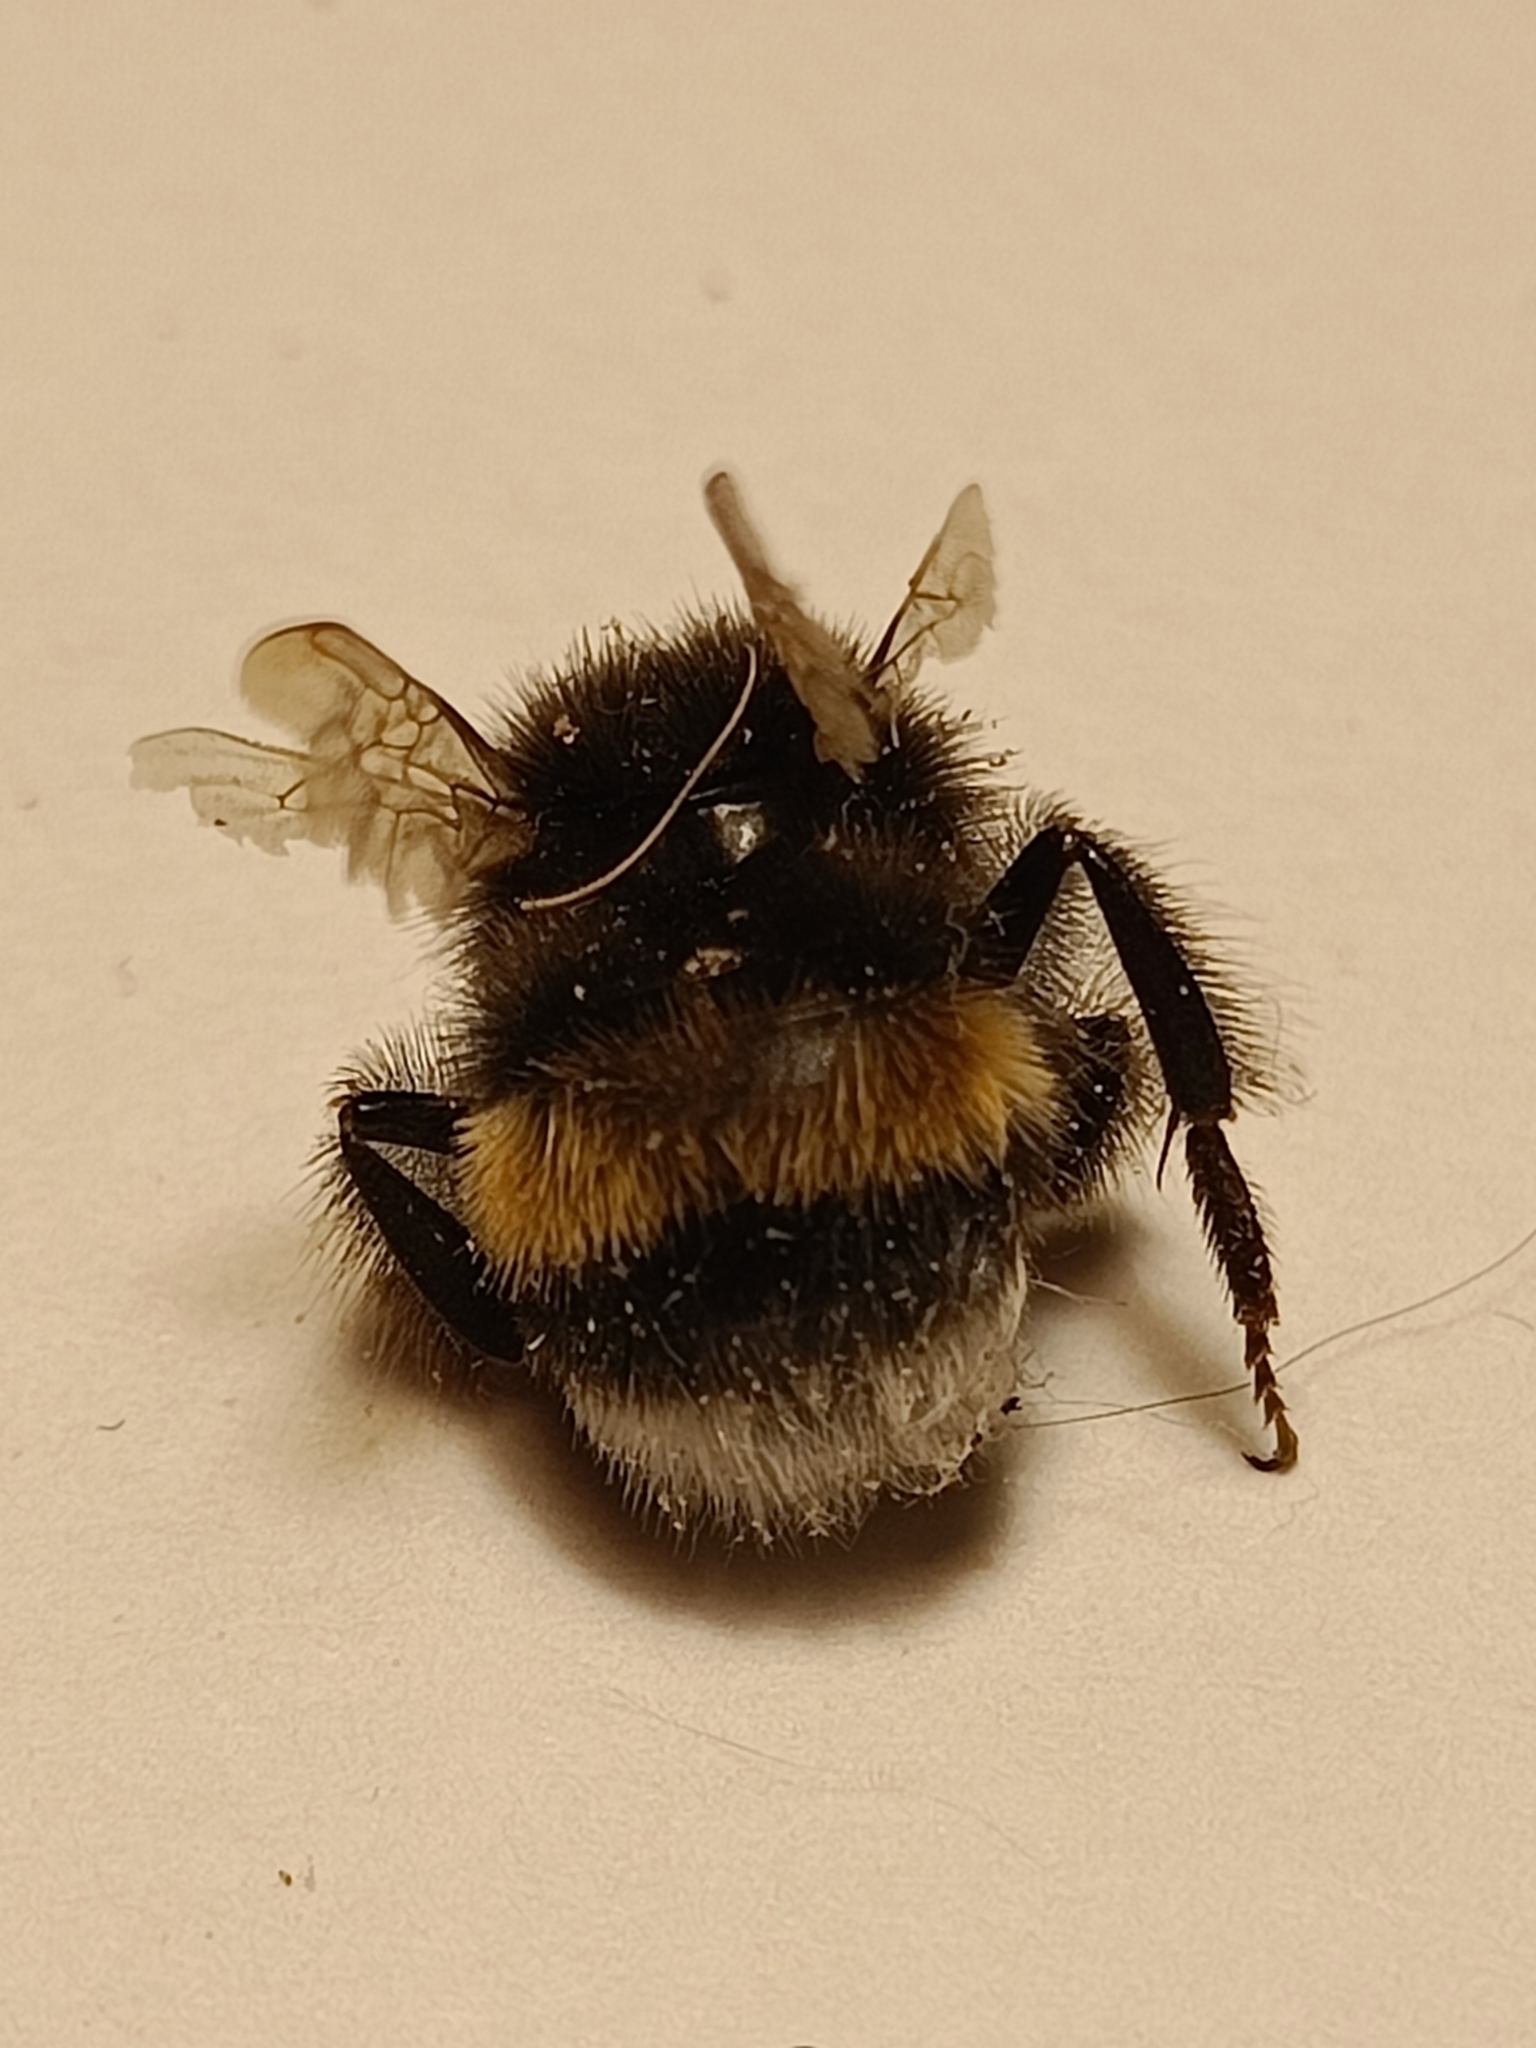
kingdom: Animalia
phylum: Arthropoda
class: Insecta
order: Hymenoptera
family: Apidae
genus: Bombus
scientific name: Bombus
